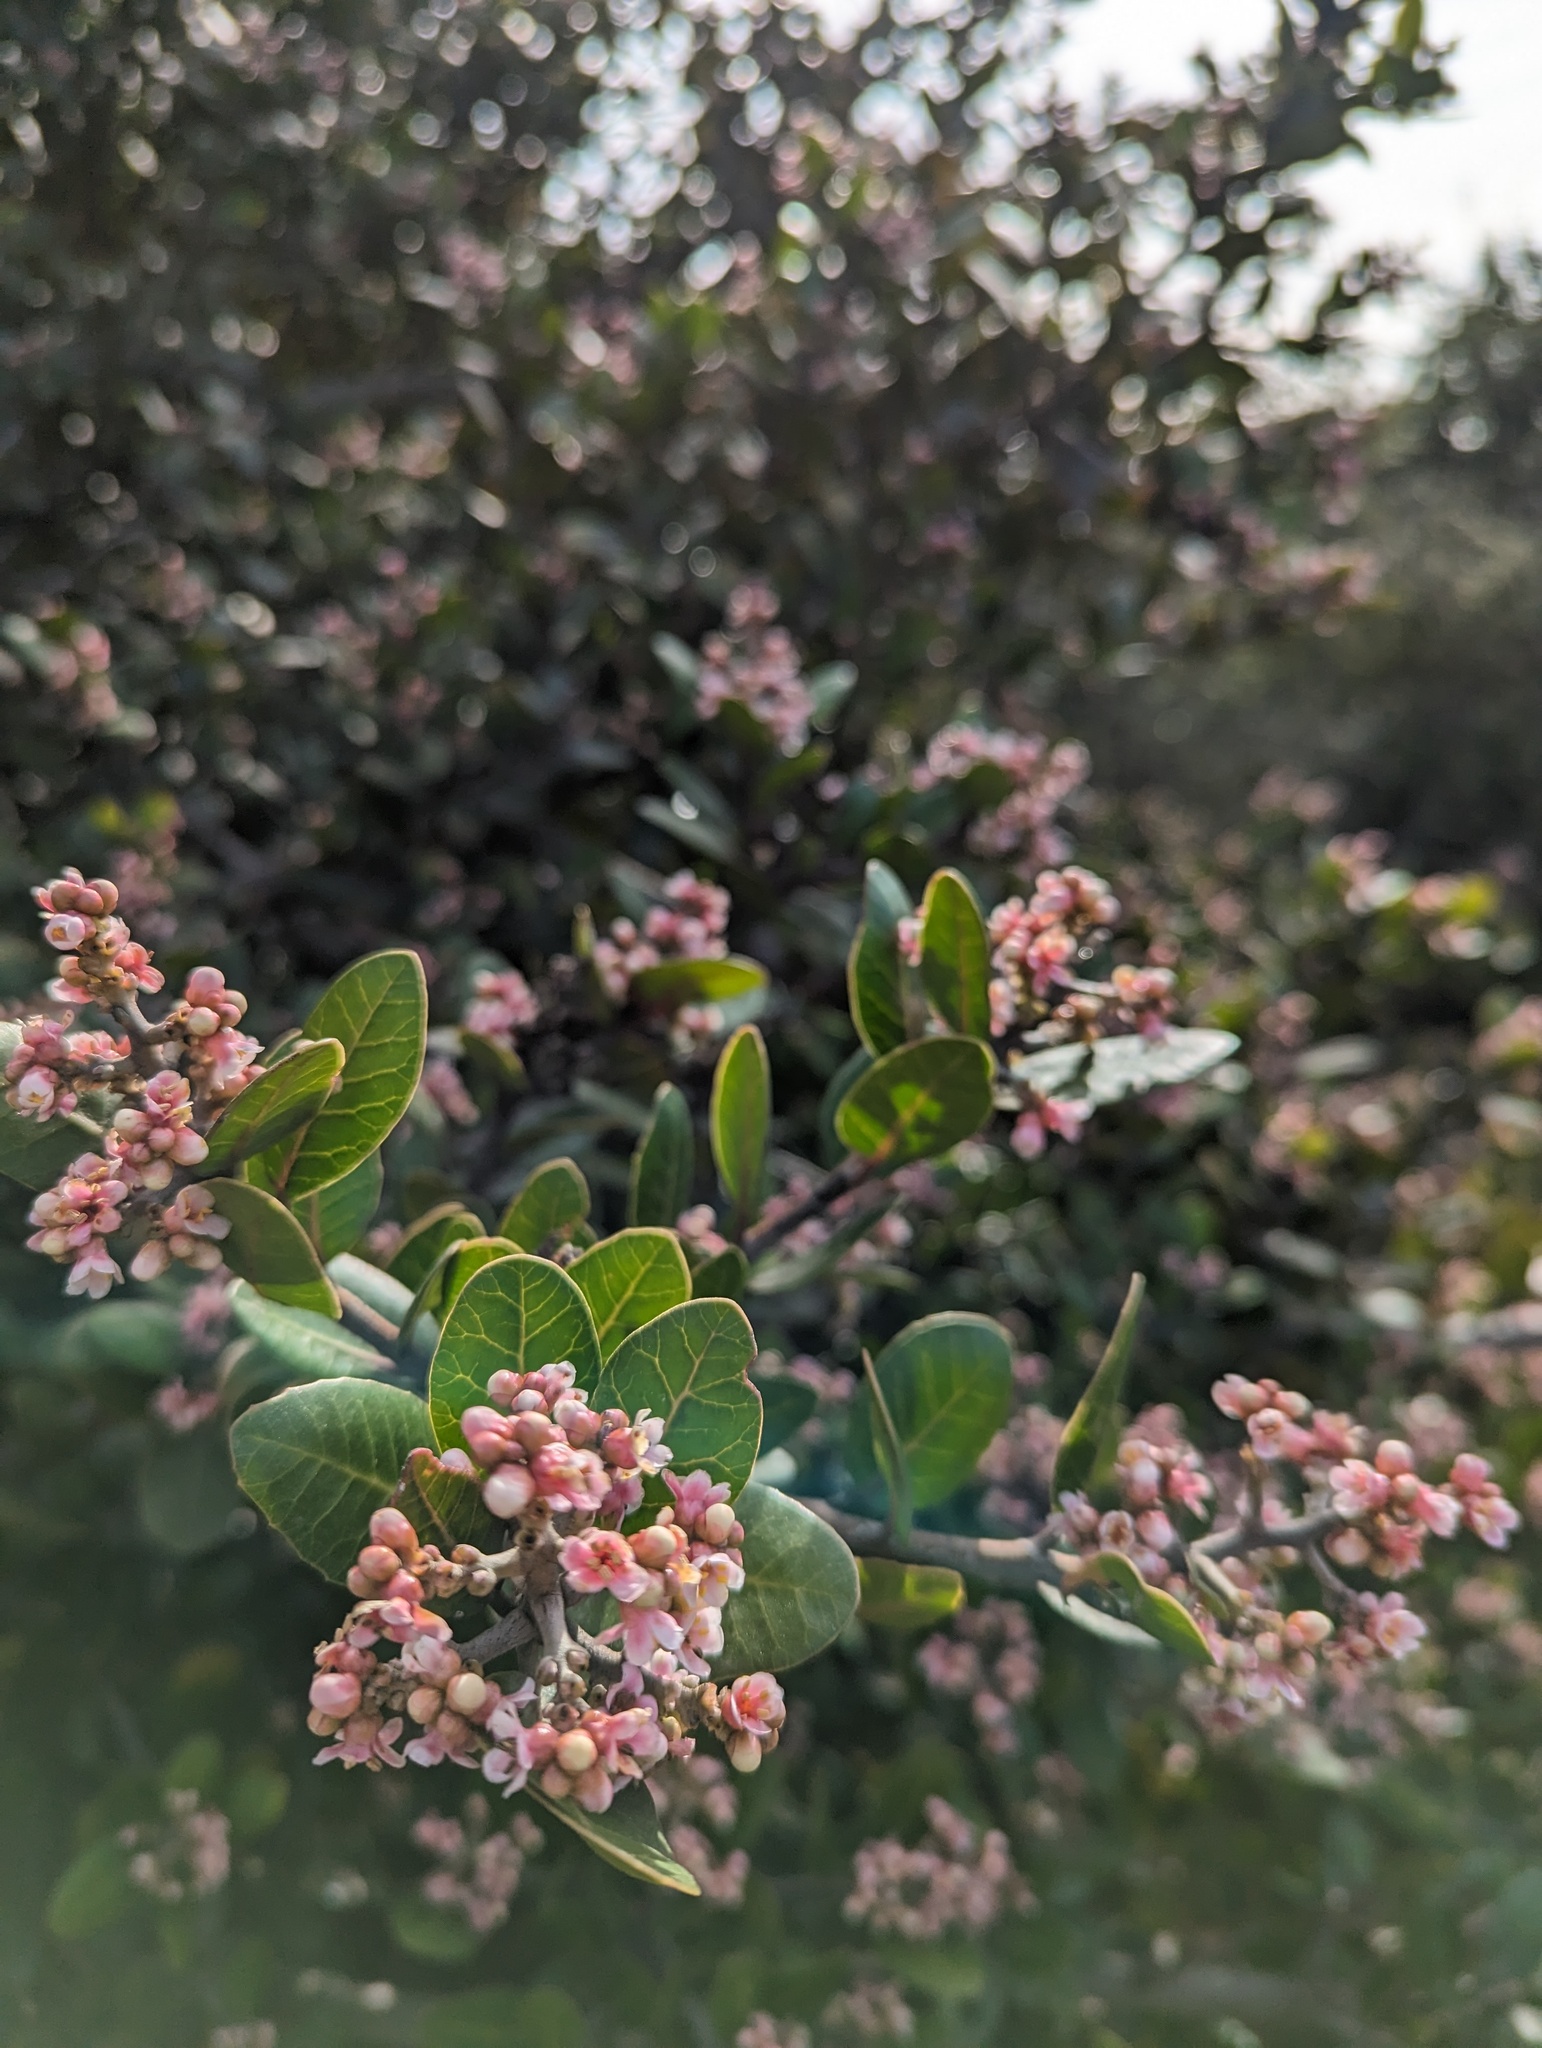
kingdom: Plantae
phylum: Tracheophyta
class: Magnoliopsida
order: Sapindales
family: Anacardiaceae
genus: Rhus
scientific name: Rhus integrifolia
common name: Lemonade sumac
